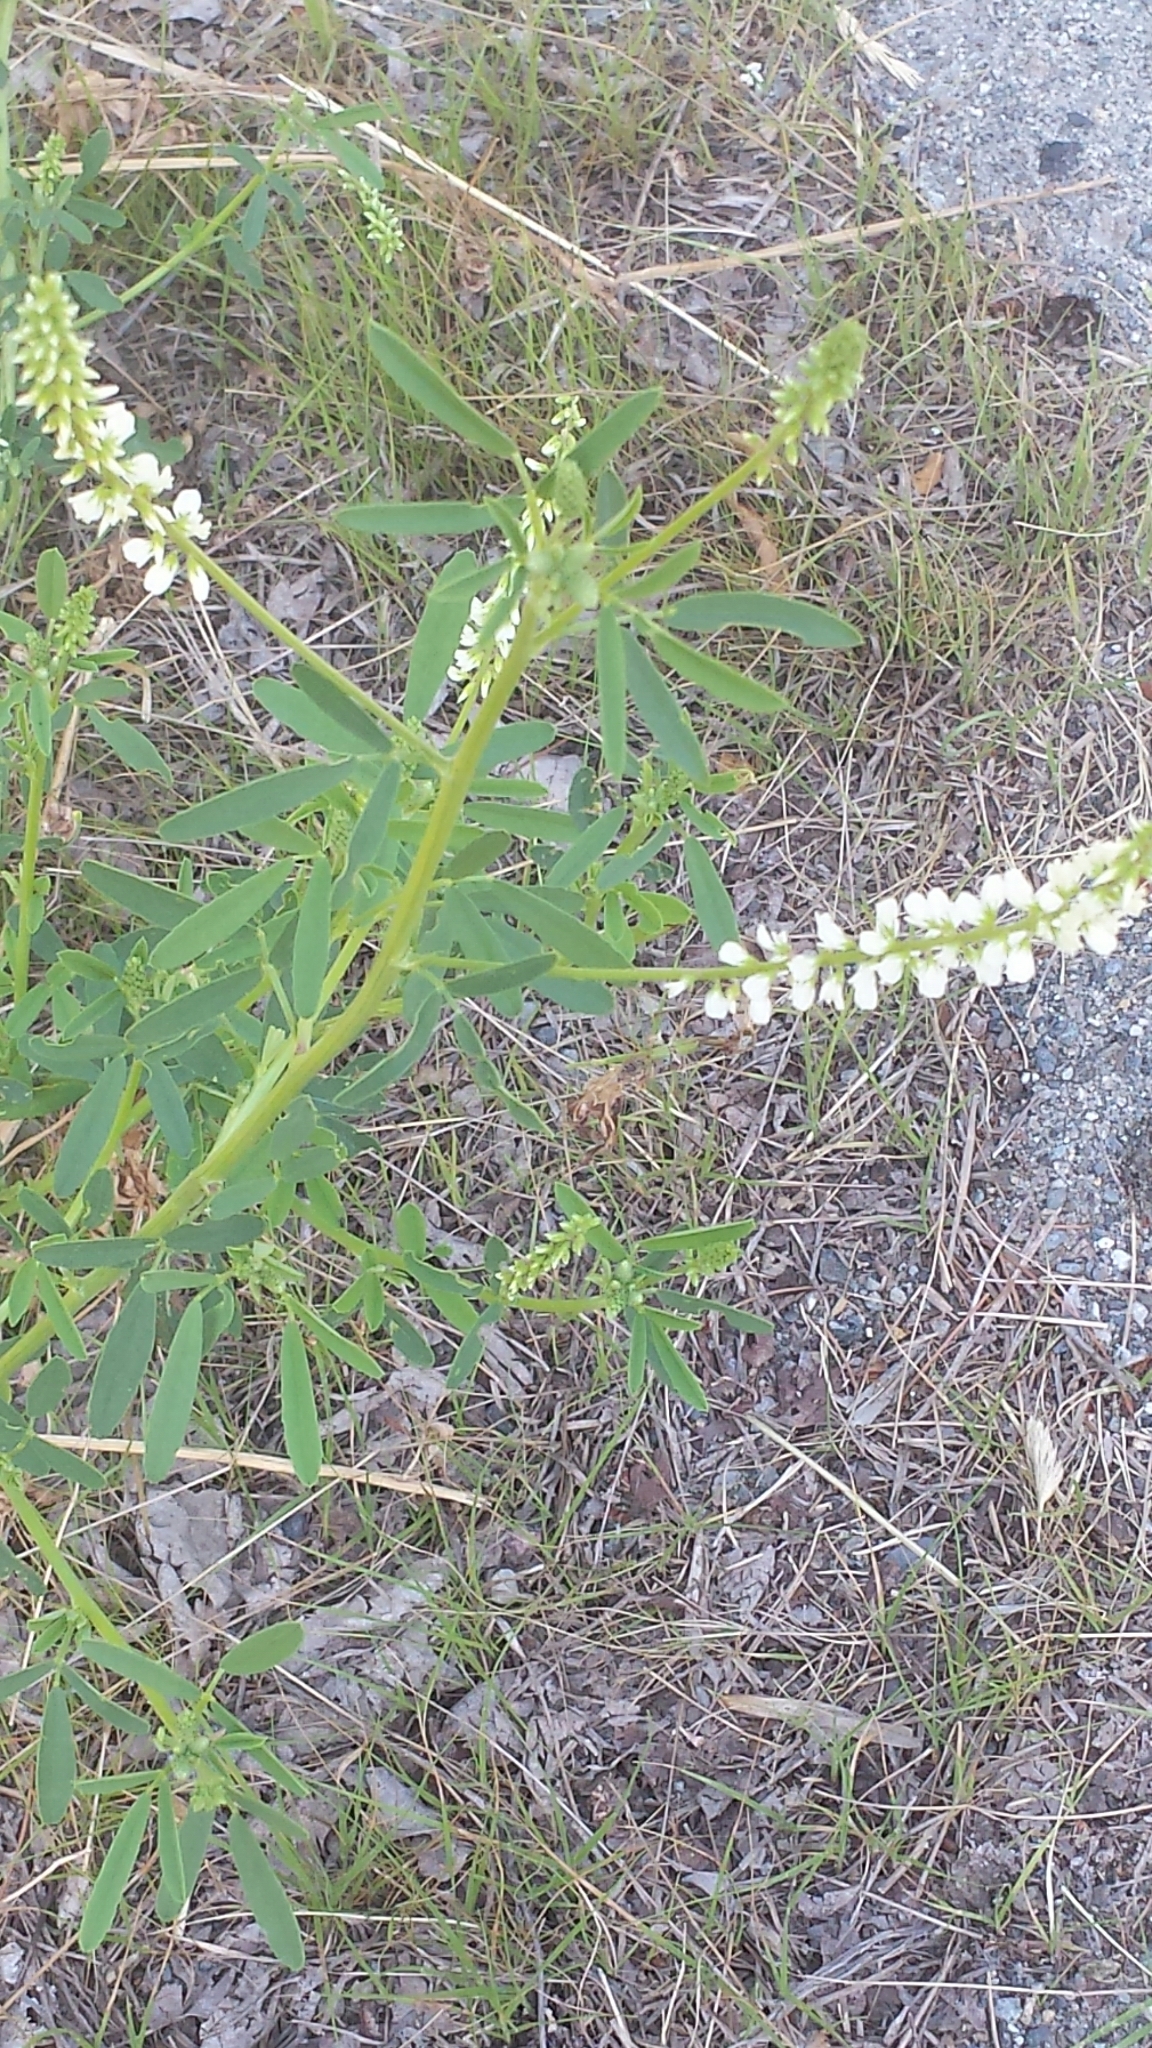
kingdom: Plantae
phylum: Tracheophyta
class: Magnoliopsida
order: Fabales
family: Fabaceae
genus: Melilotus
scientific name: Melilotus albus
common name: White melilot
